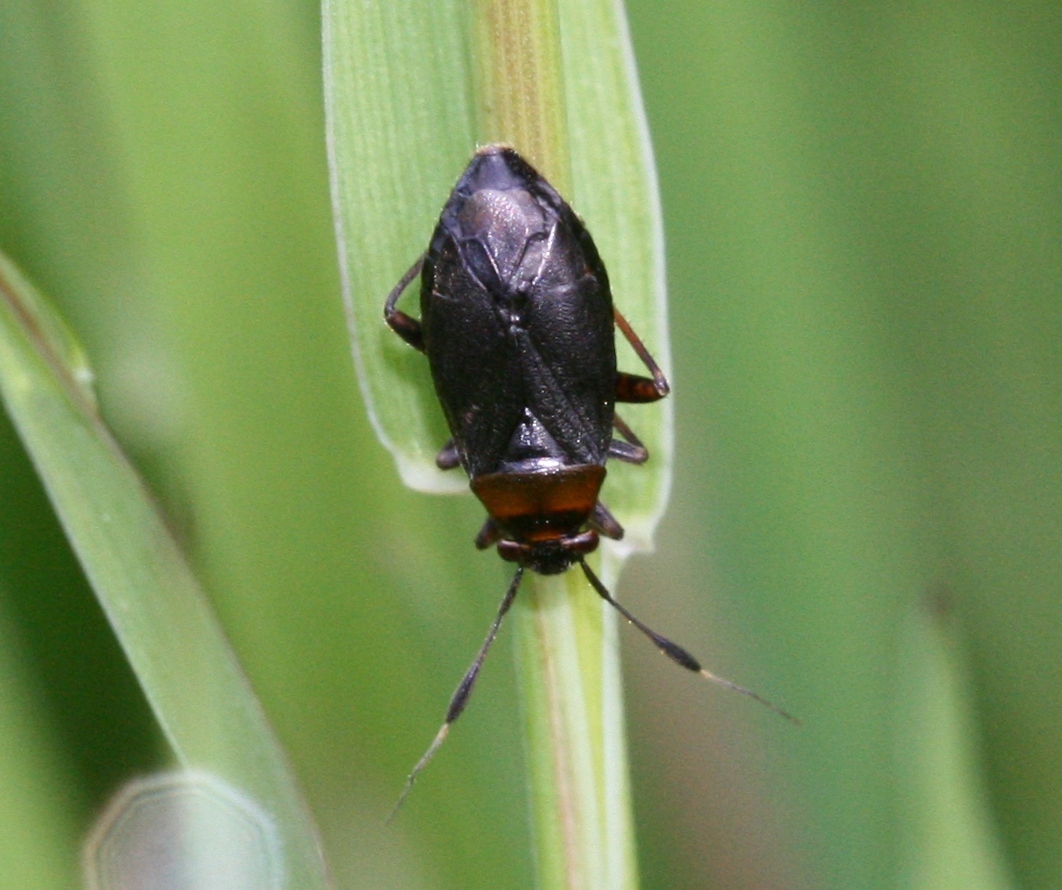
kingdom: Animalia
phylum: Arthropoda
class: Insecta
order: Hemiptera
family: Miridae
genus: Capsus
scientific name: Capsus ater
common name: Black plant bug
